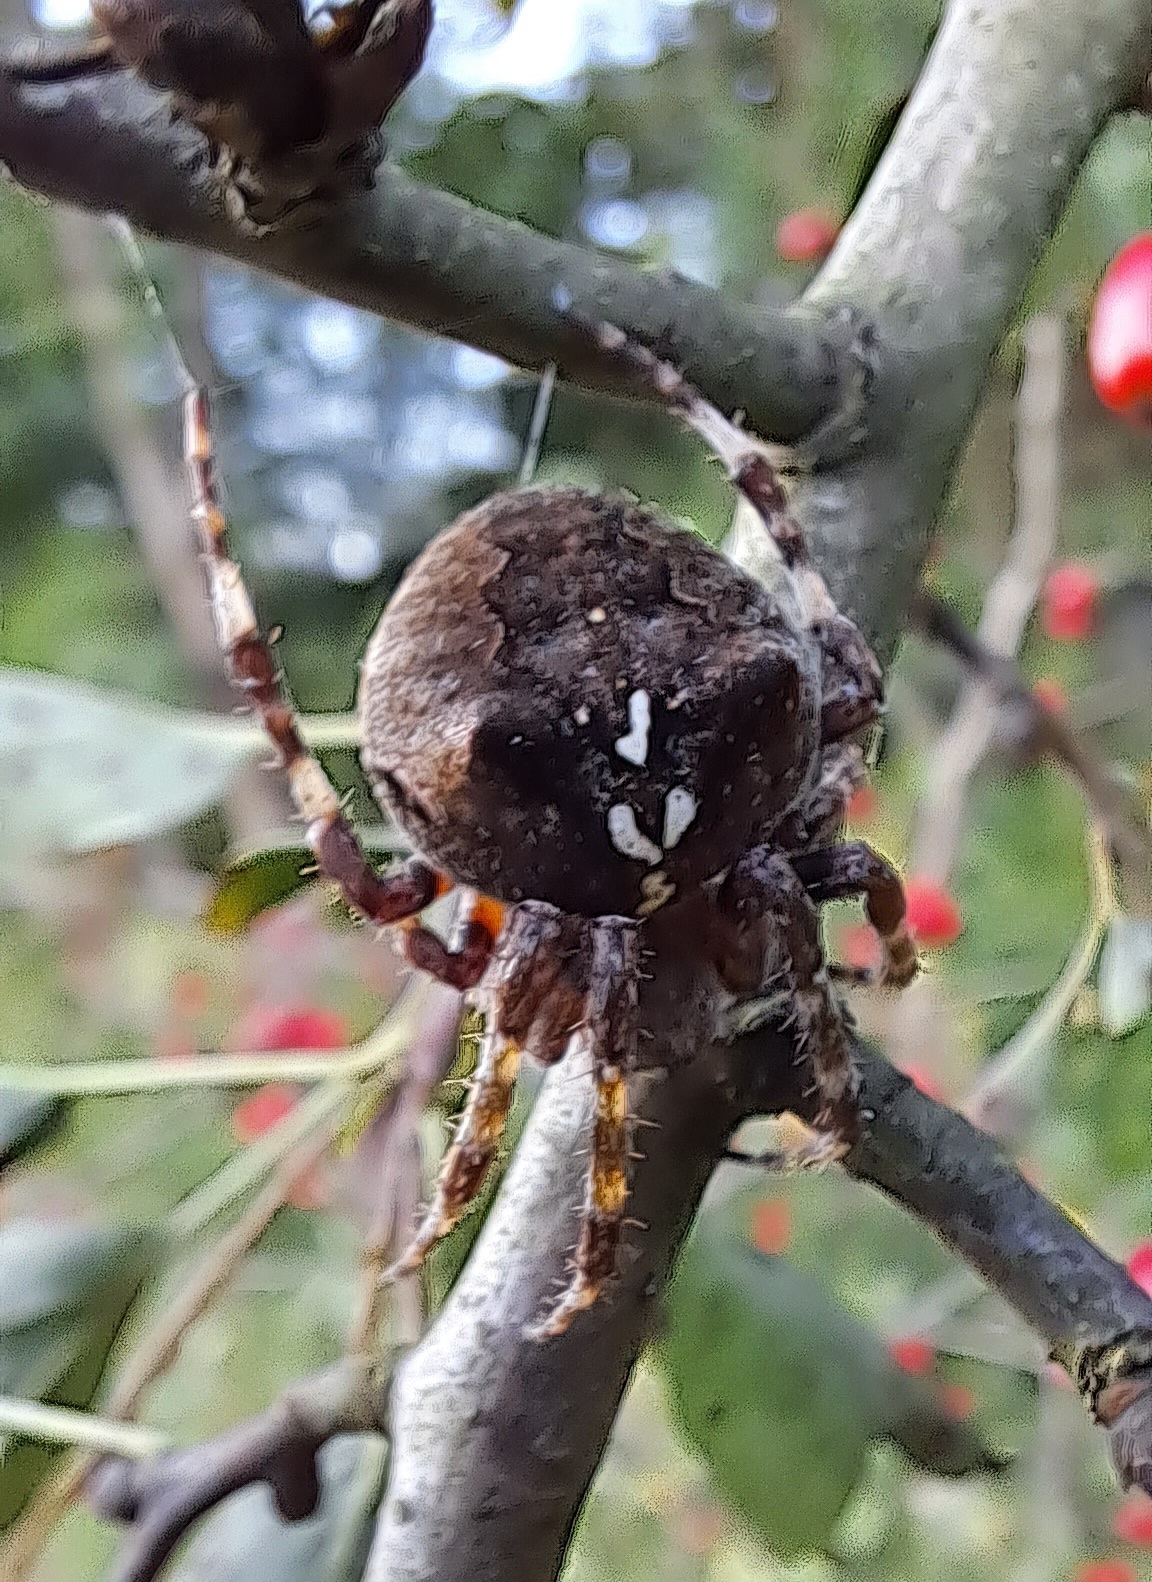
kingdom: Animalia
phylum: Arthropoda
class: Arachnida
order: Araneae
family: Araneidae
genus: Araneus
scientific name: Araneus angulatus
